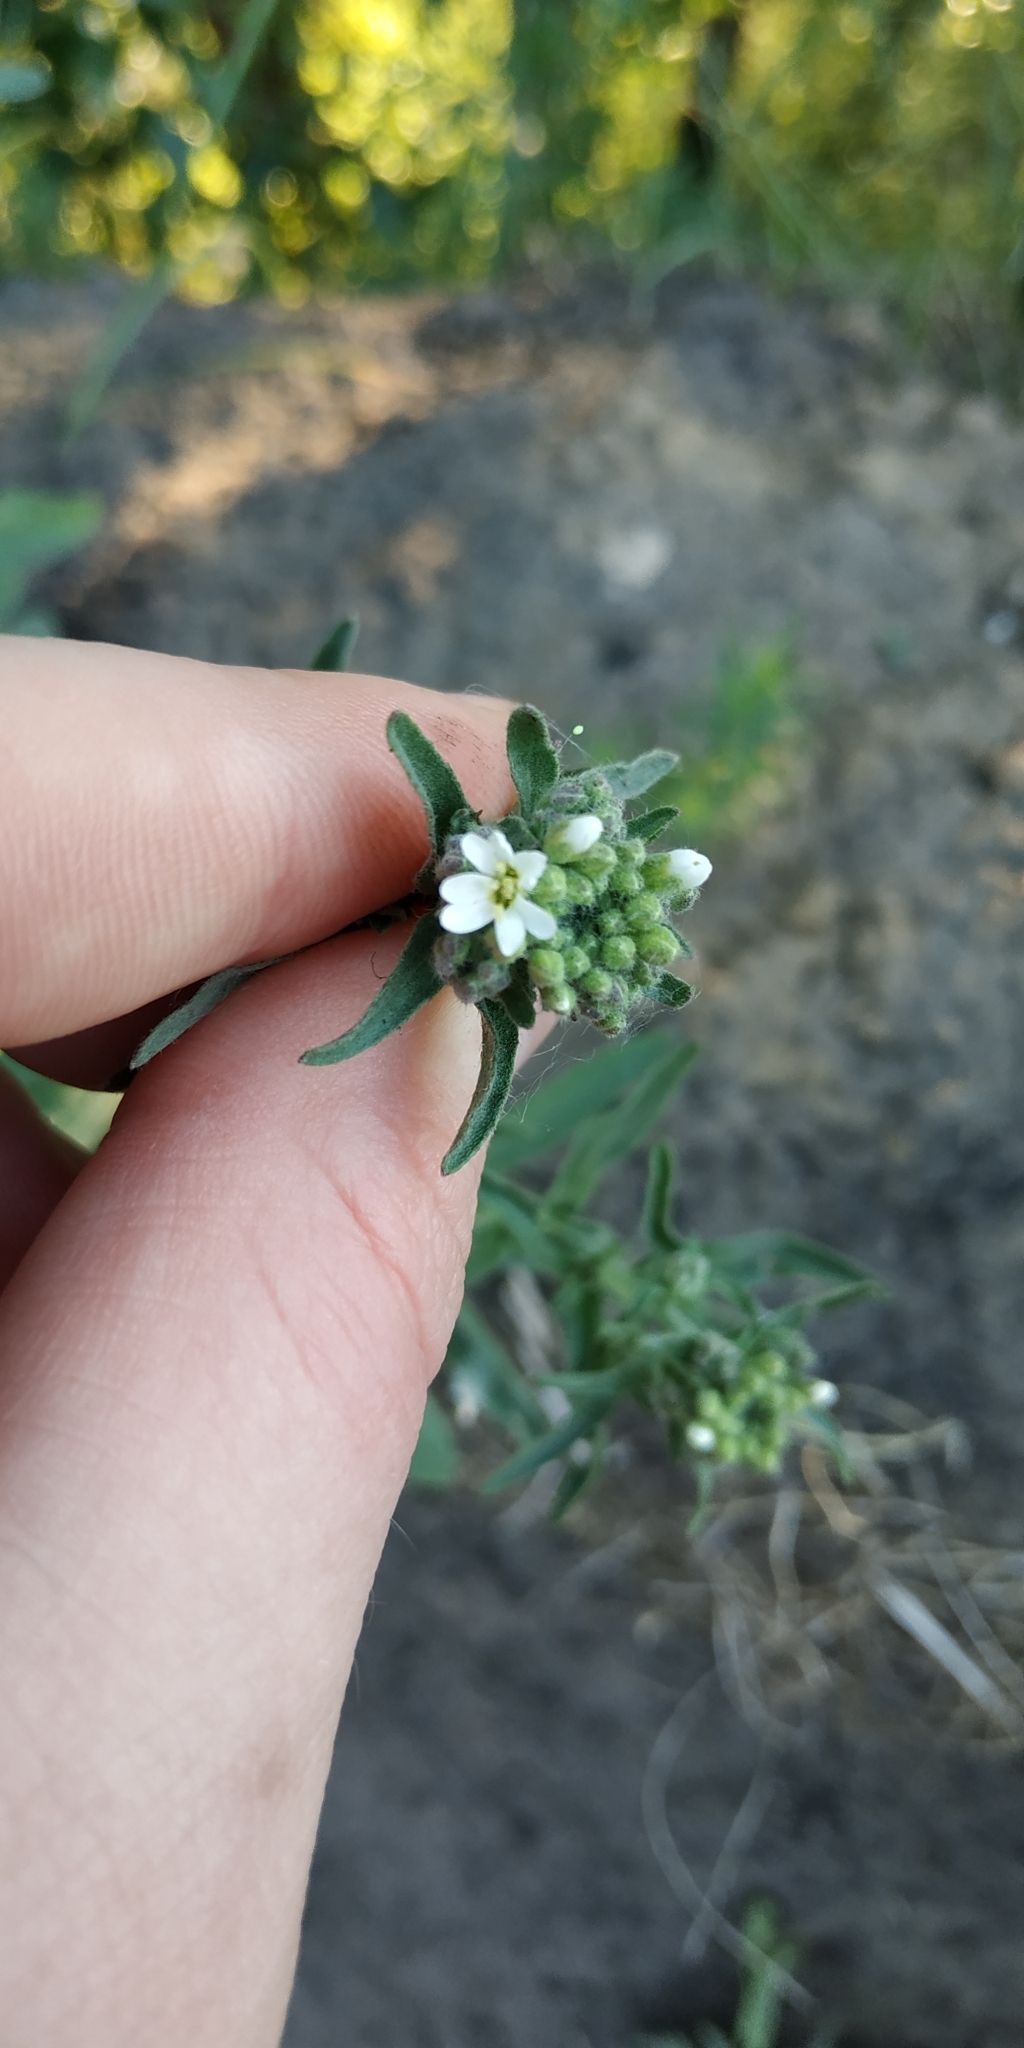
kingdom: Plantae
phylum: Tracheophyta
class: Magnoliopsida
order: Brassicales
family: Brassicaceae
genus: Berteroa
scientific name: Berteroa incana
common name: Hoary alison
